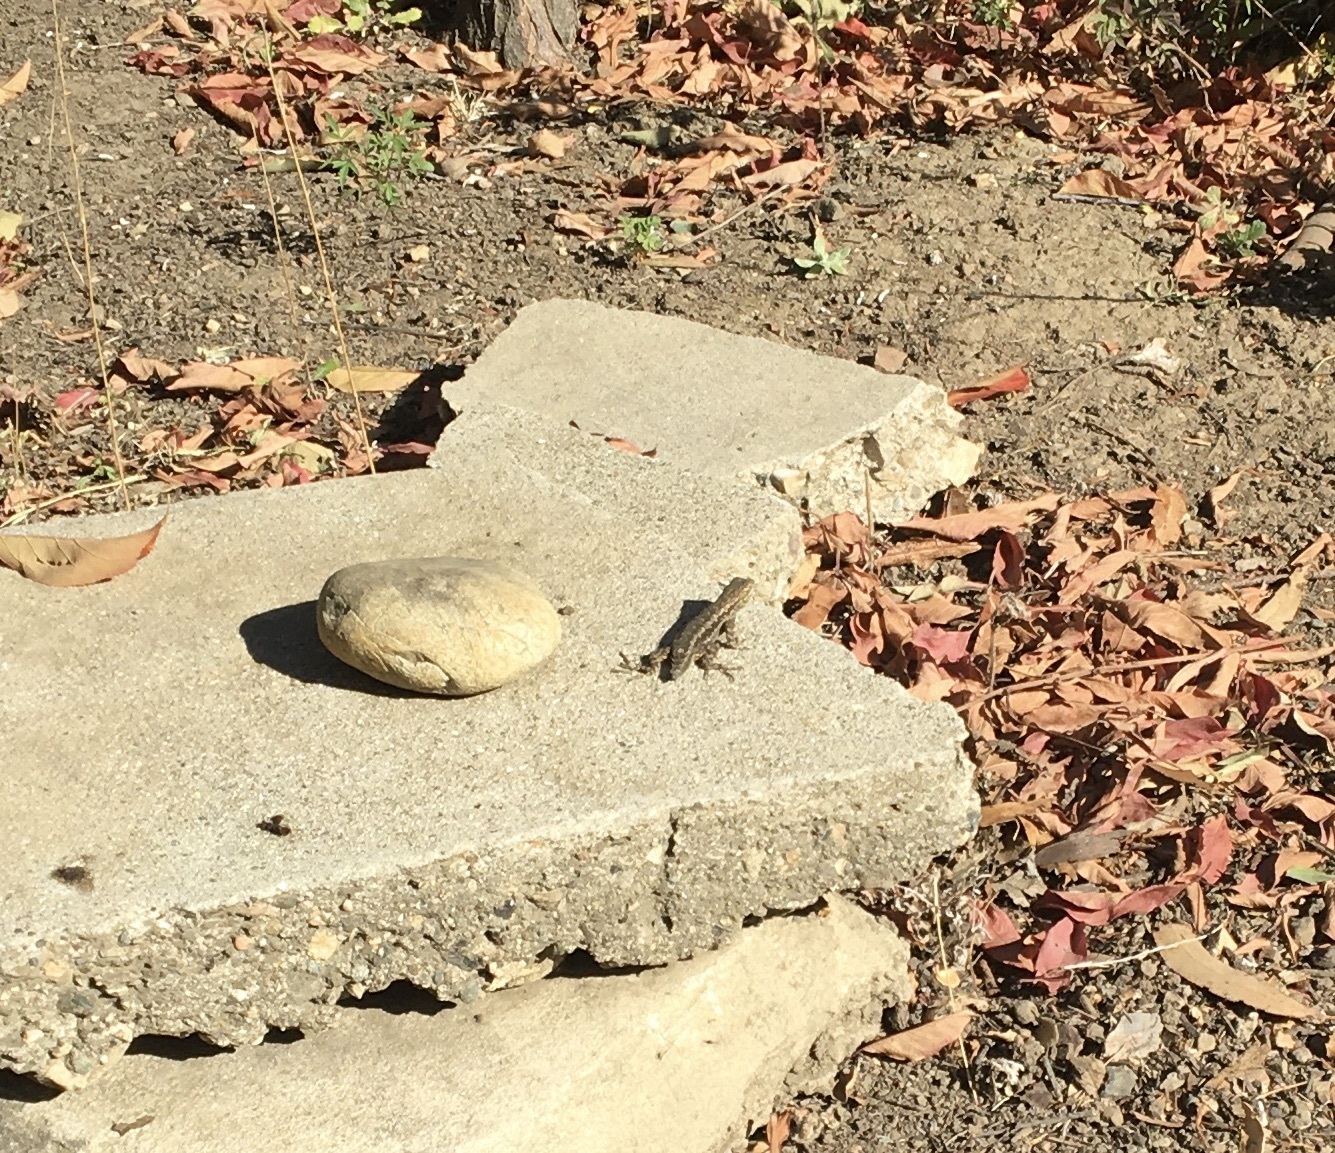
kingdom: Animalia
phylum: Chordata
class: Squamata
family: Phrynosomatidae
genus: Sceloporus
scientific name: Sceloporus occidentalis
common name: Western fence lizard
